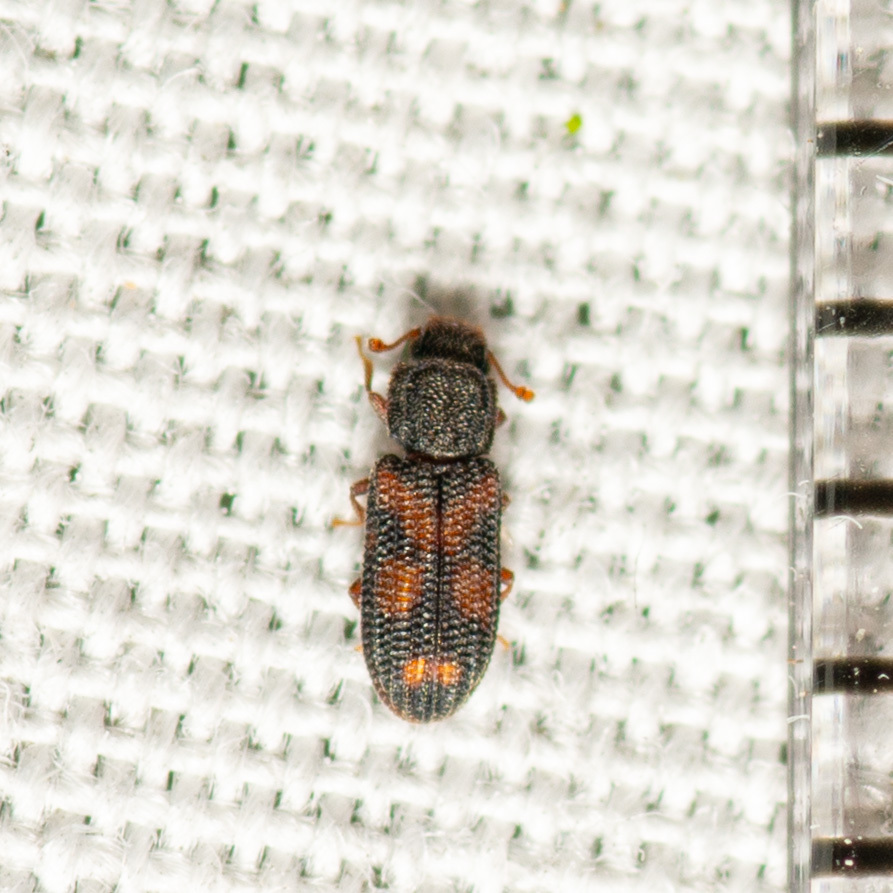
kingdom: Animalia
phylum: Arthropoda
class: Insecta
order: Coleoptera
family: Zopheridae
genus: Bitoma
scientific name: Bitoma quadriguttata
